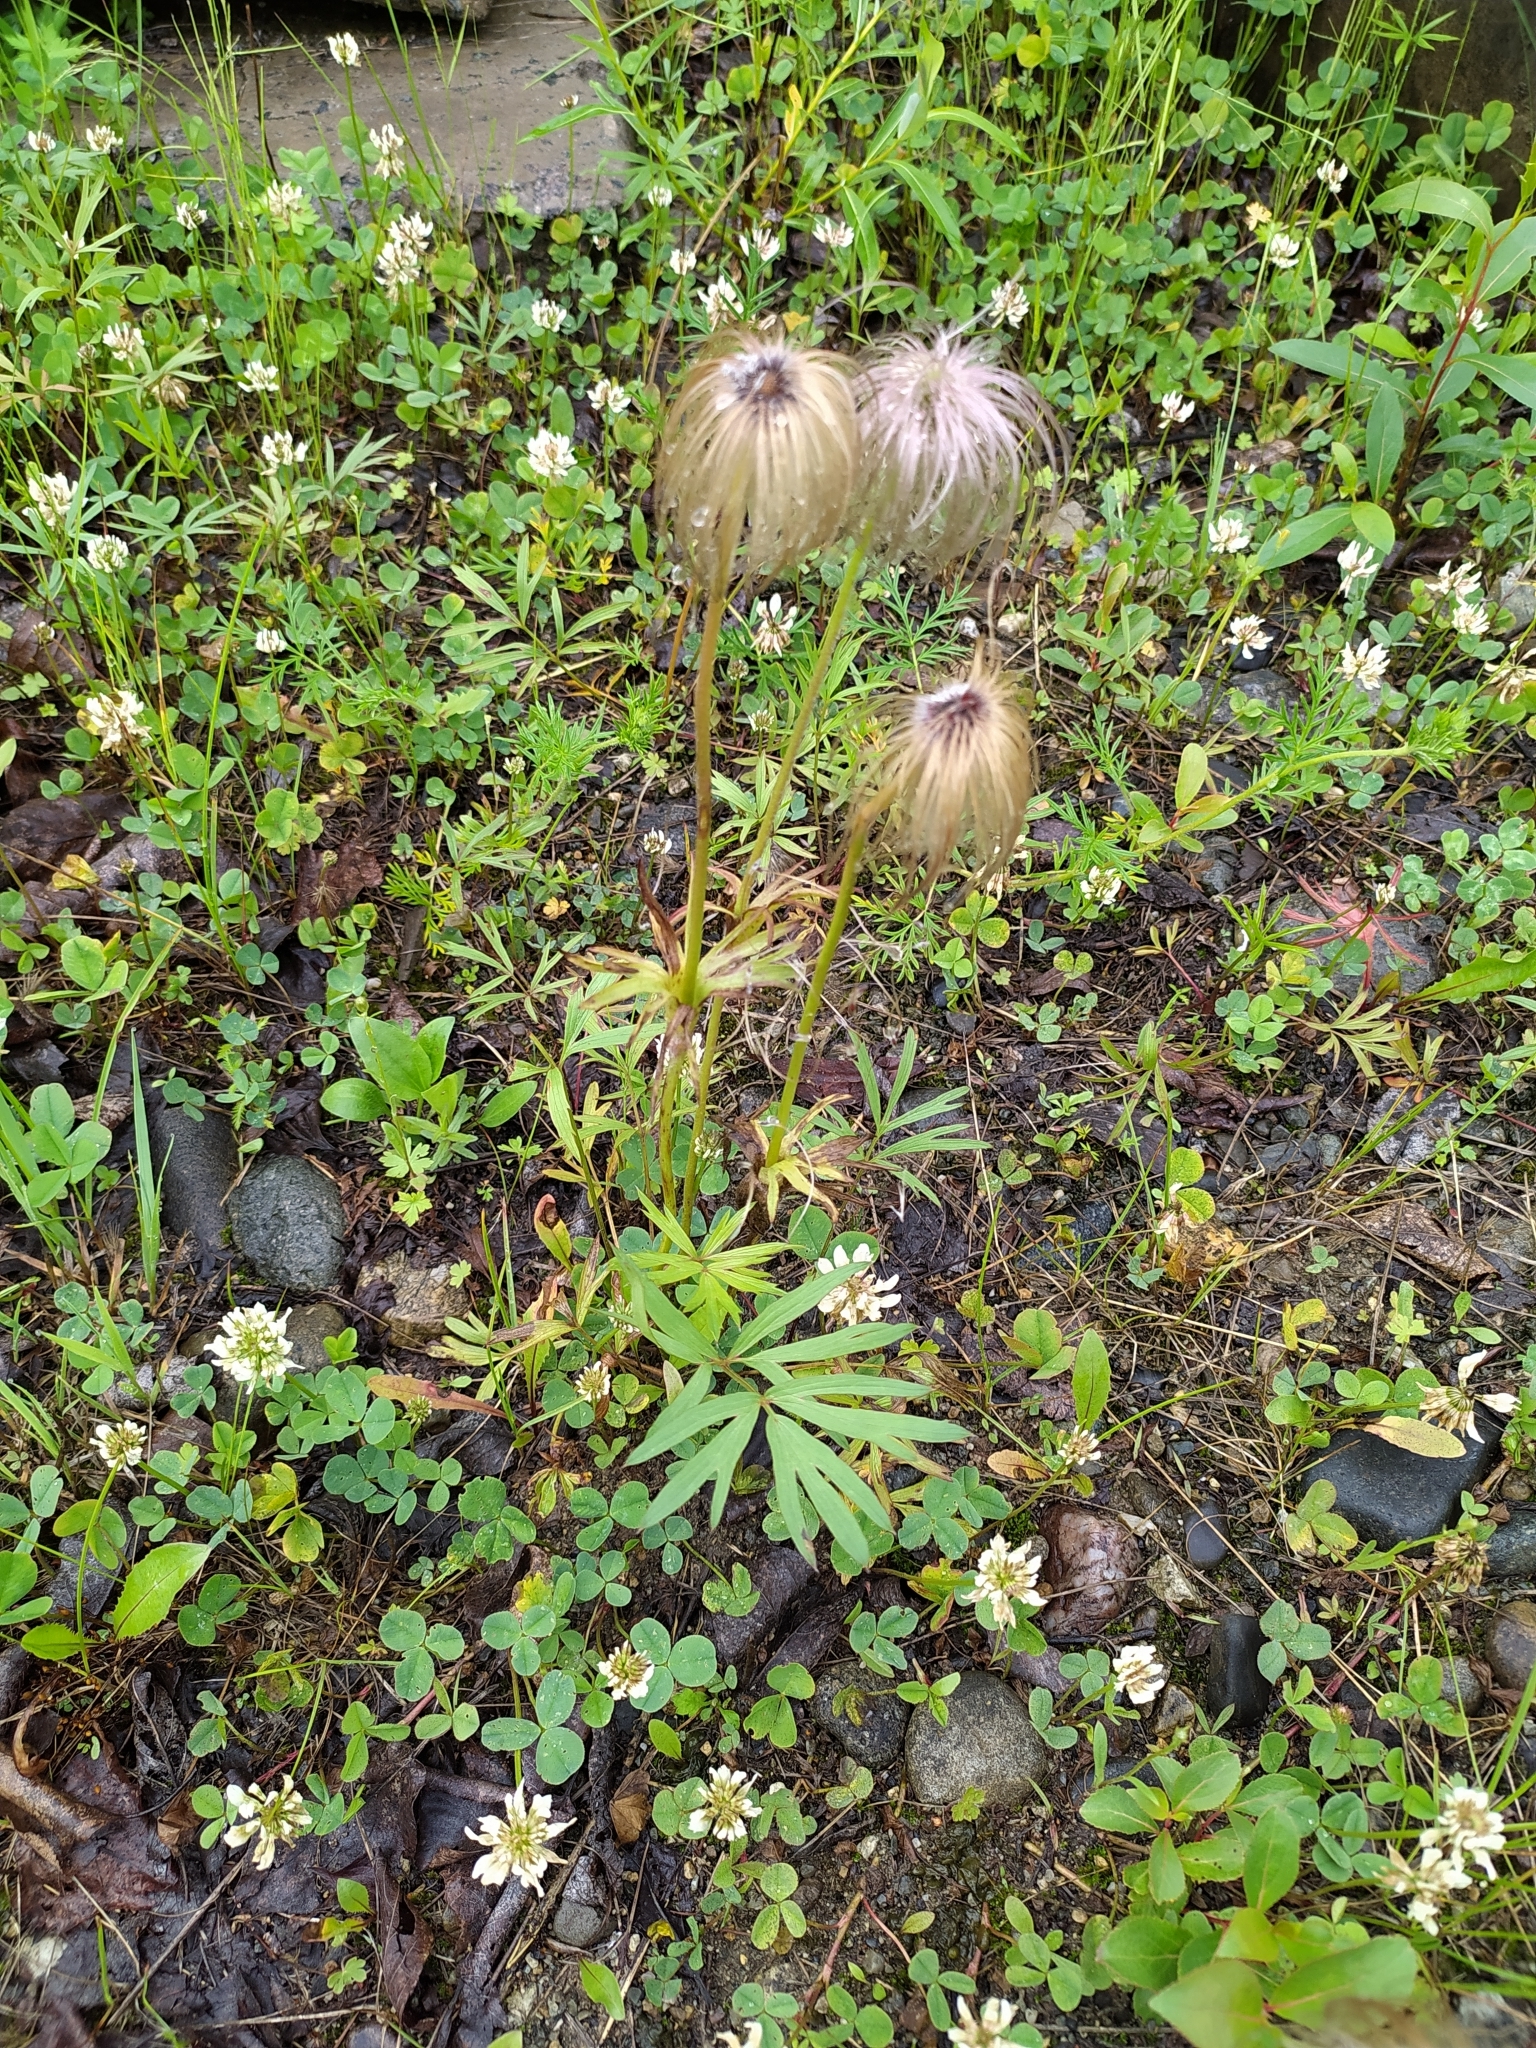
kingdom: Plantae
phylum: Tracheophyta
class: Magnoliopsida
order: Ranunculales
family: Ranunculaceae
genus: Pulsatilla
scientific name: Pulsatilla dahurica
